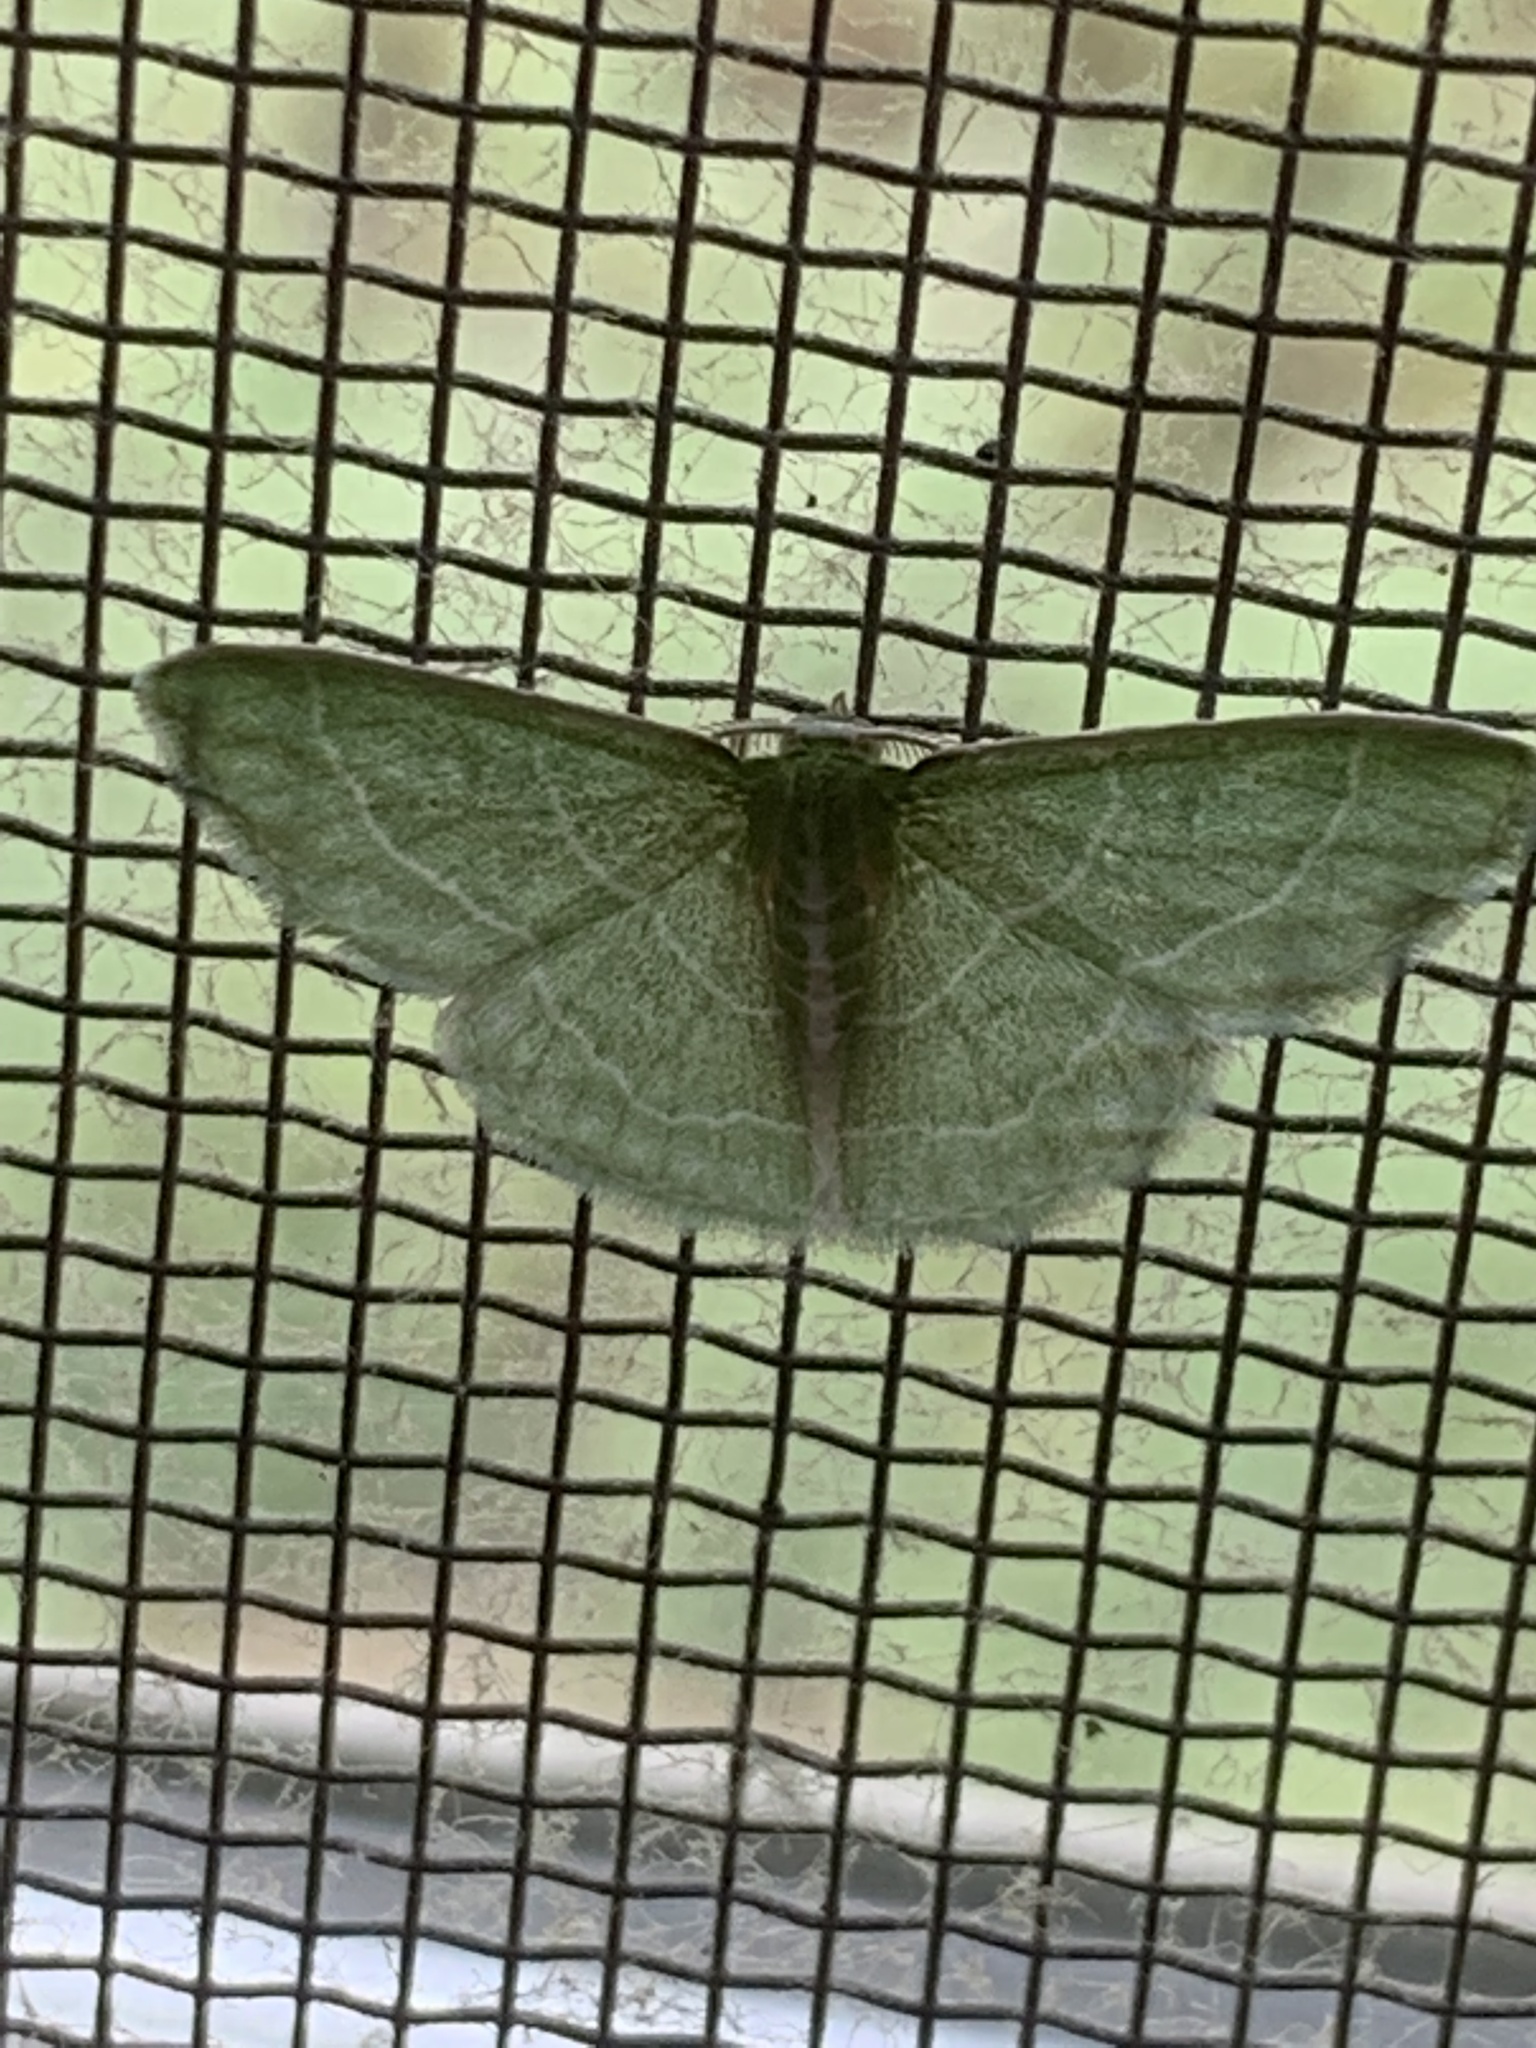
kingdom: Animalia
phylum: Arthropoda
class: Insecta
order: Lepidoptera
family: Geometridae
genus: Synchlora
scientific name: Synchlora aerata
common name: Wavy-lined emerald
